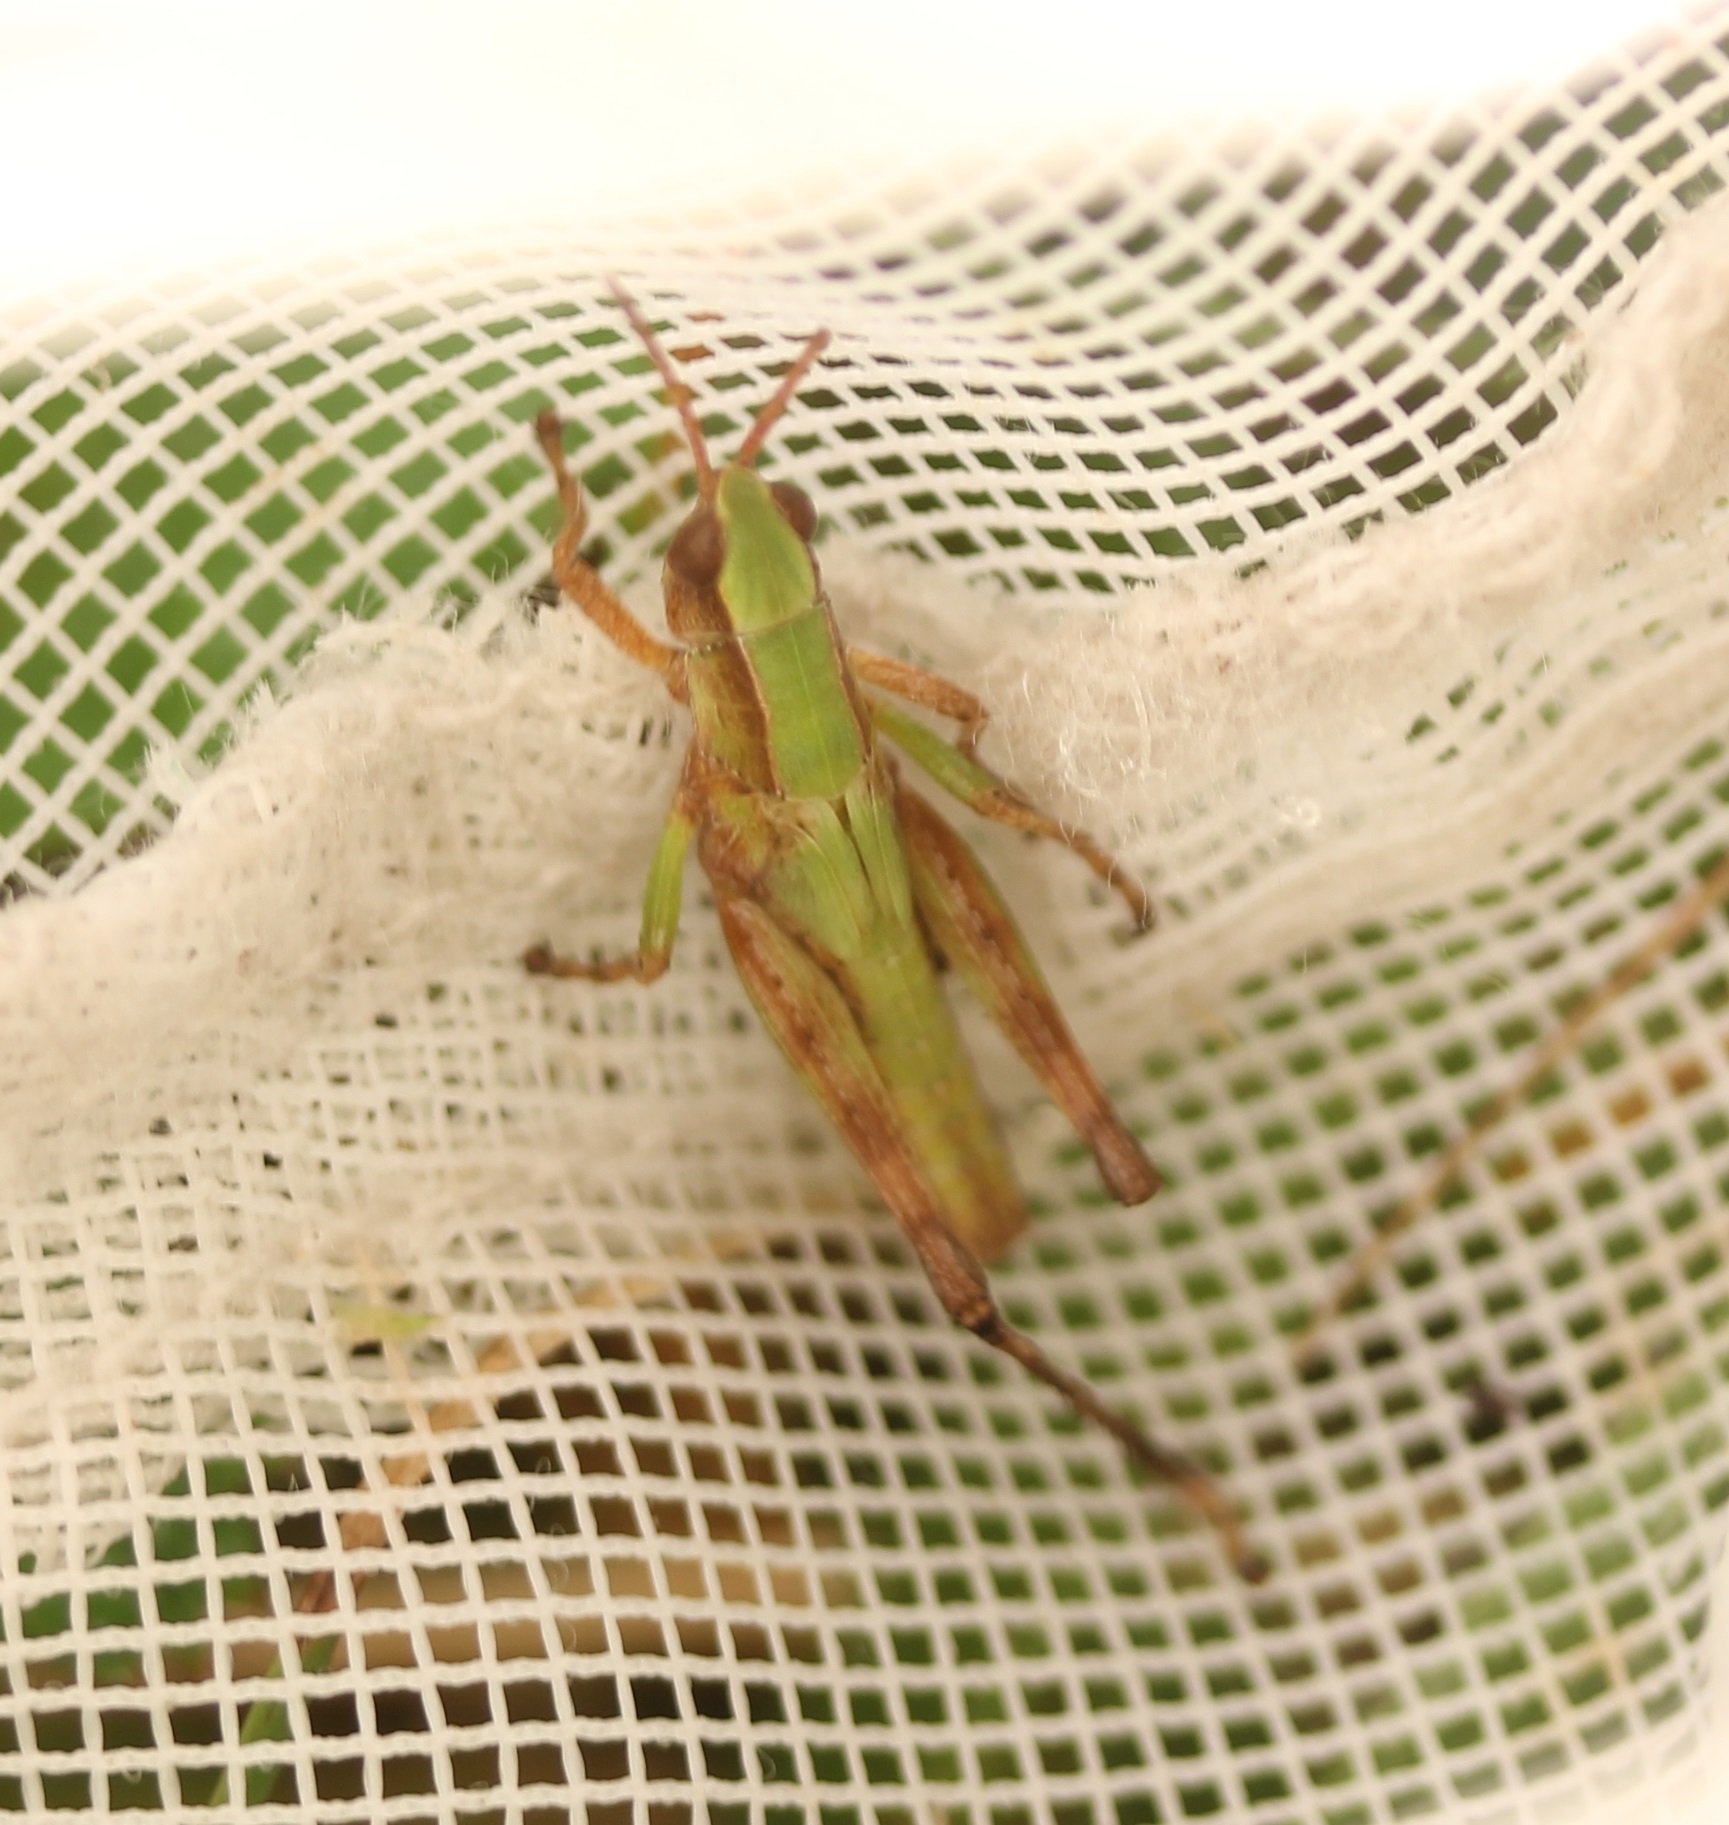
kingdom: Animalia
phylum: Arthropoda
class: Insecta
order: Orthoptera
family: Acrididae
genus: Dichromorpha
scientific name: Dichromorpha viridis
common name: Short-winged green grasshopper
